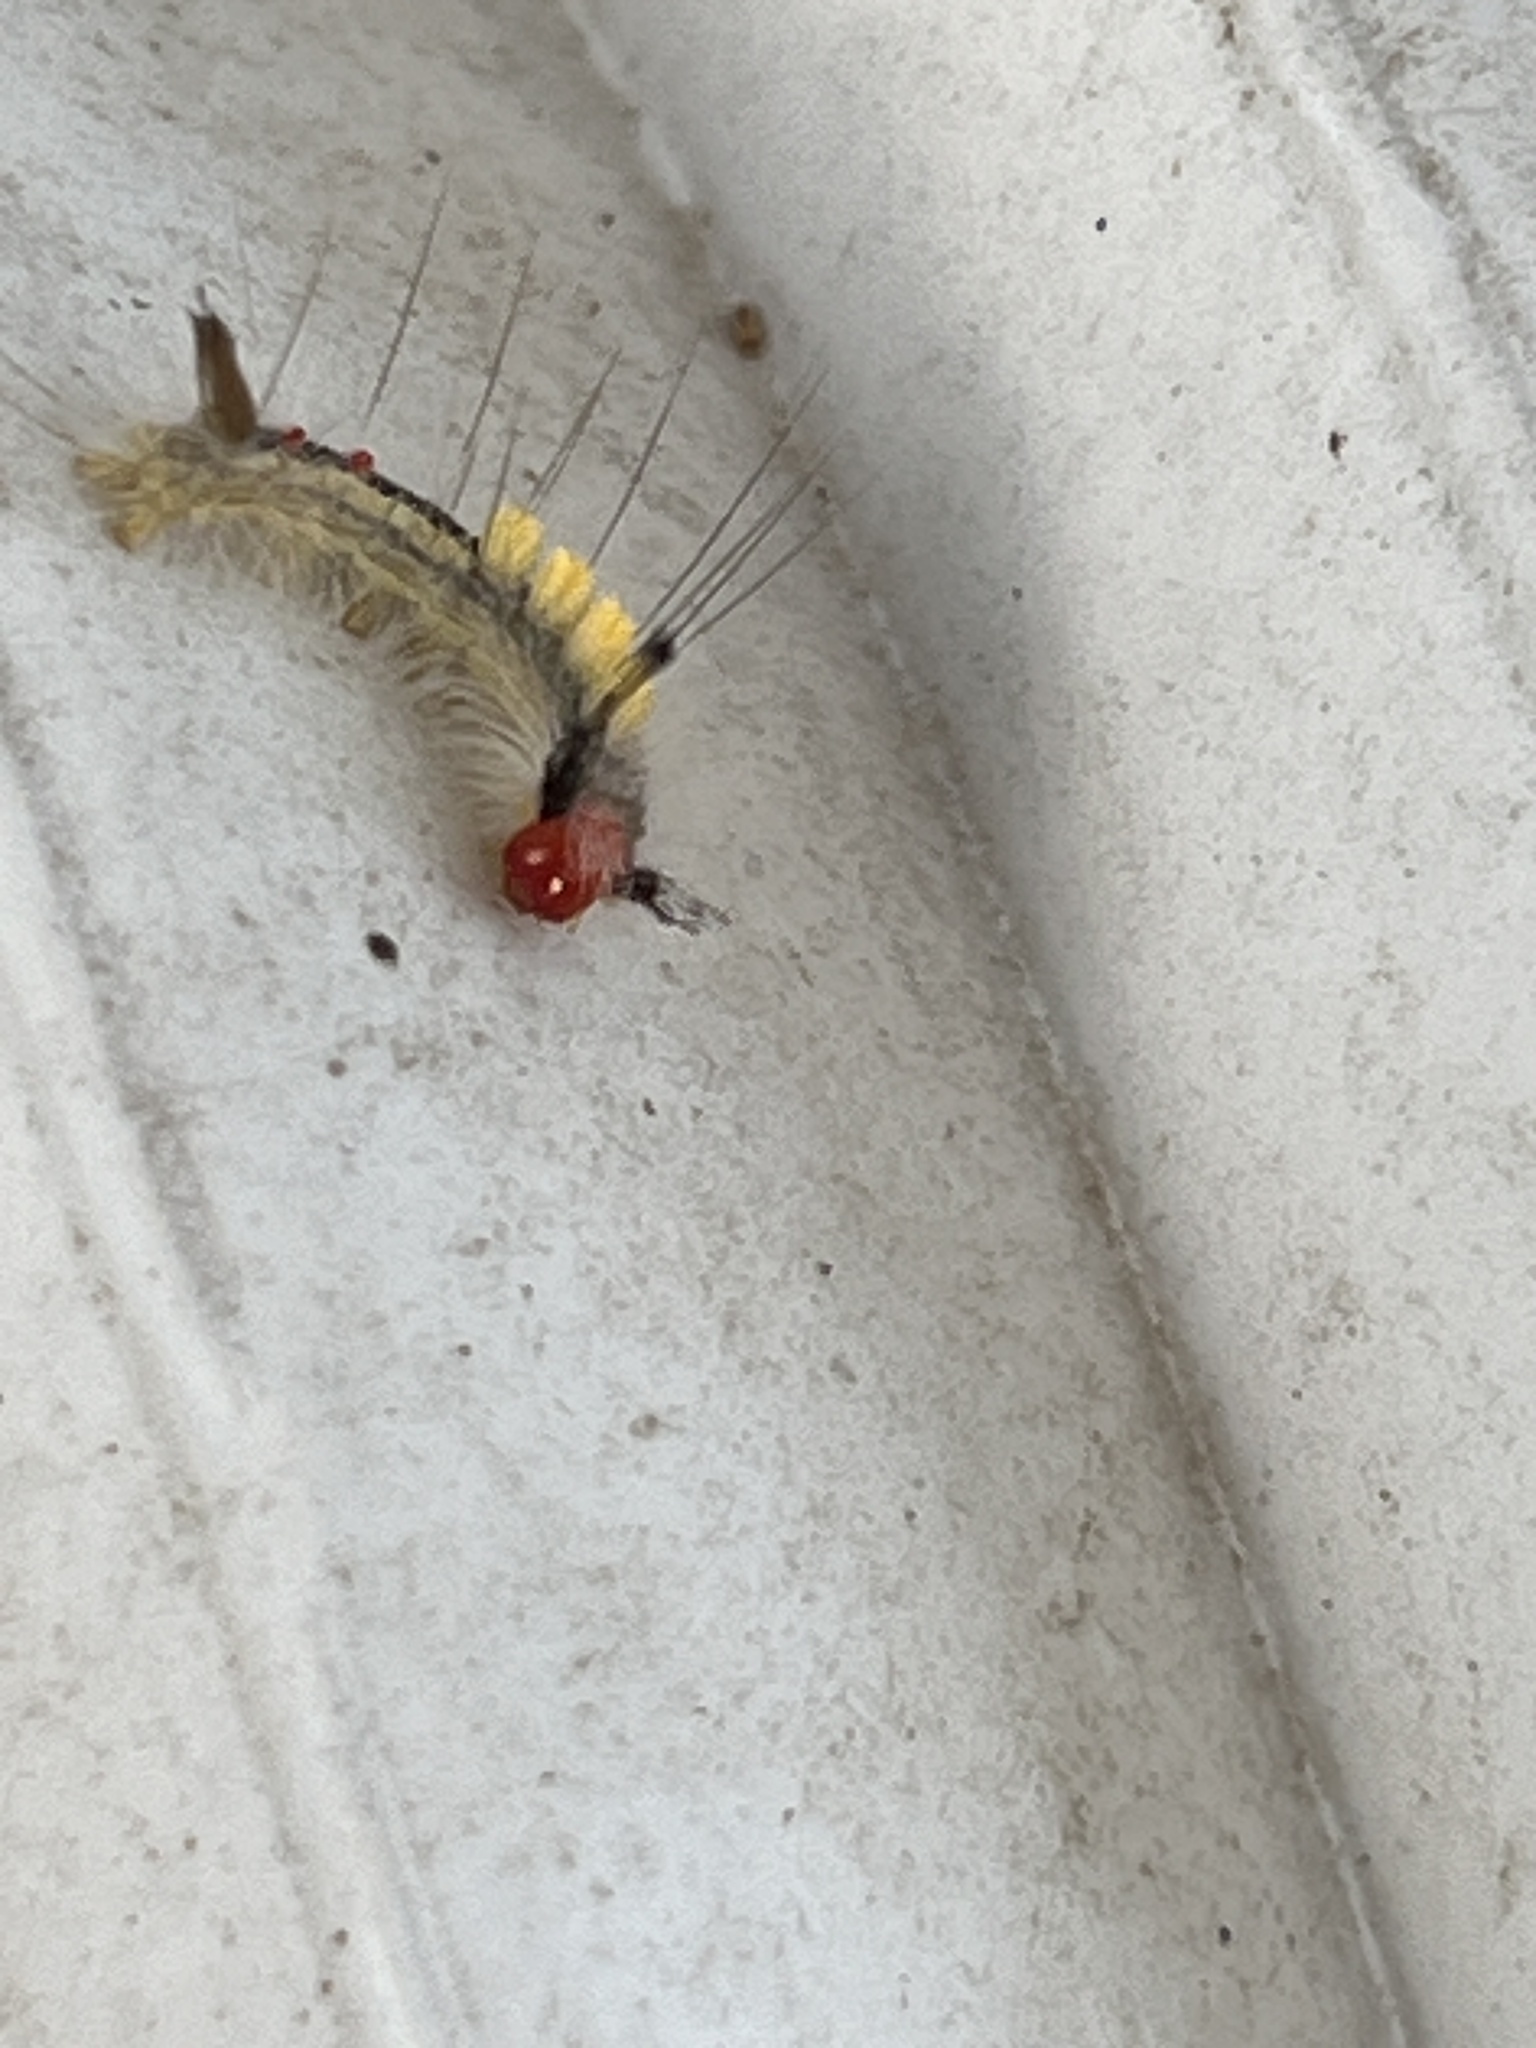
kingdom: Animalia
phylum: Arthropoda
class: Insecta
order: Lepidoptera
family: Erebidae
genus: Orgyia
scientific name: Orgyia leucostigma
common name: White-marked tussock moth
